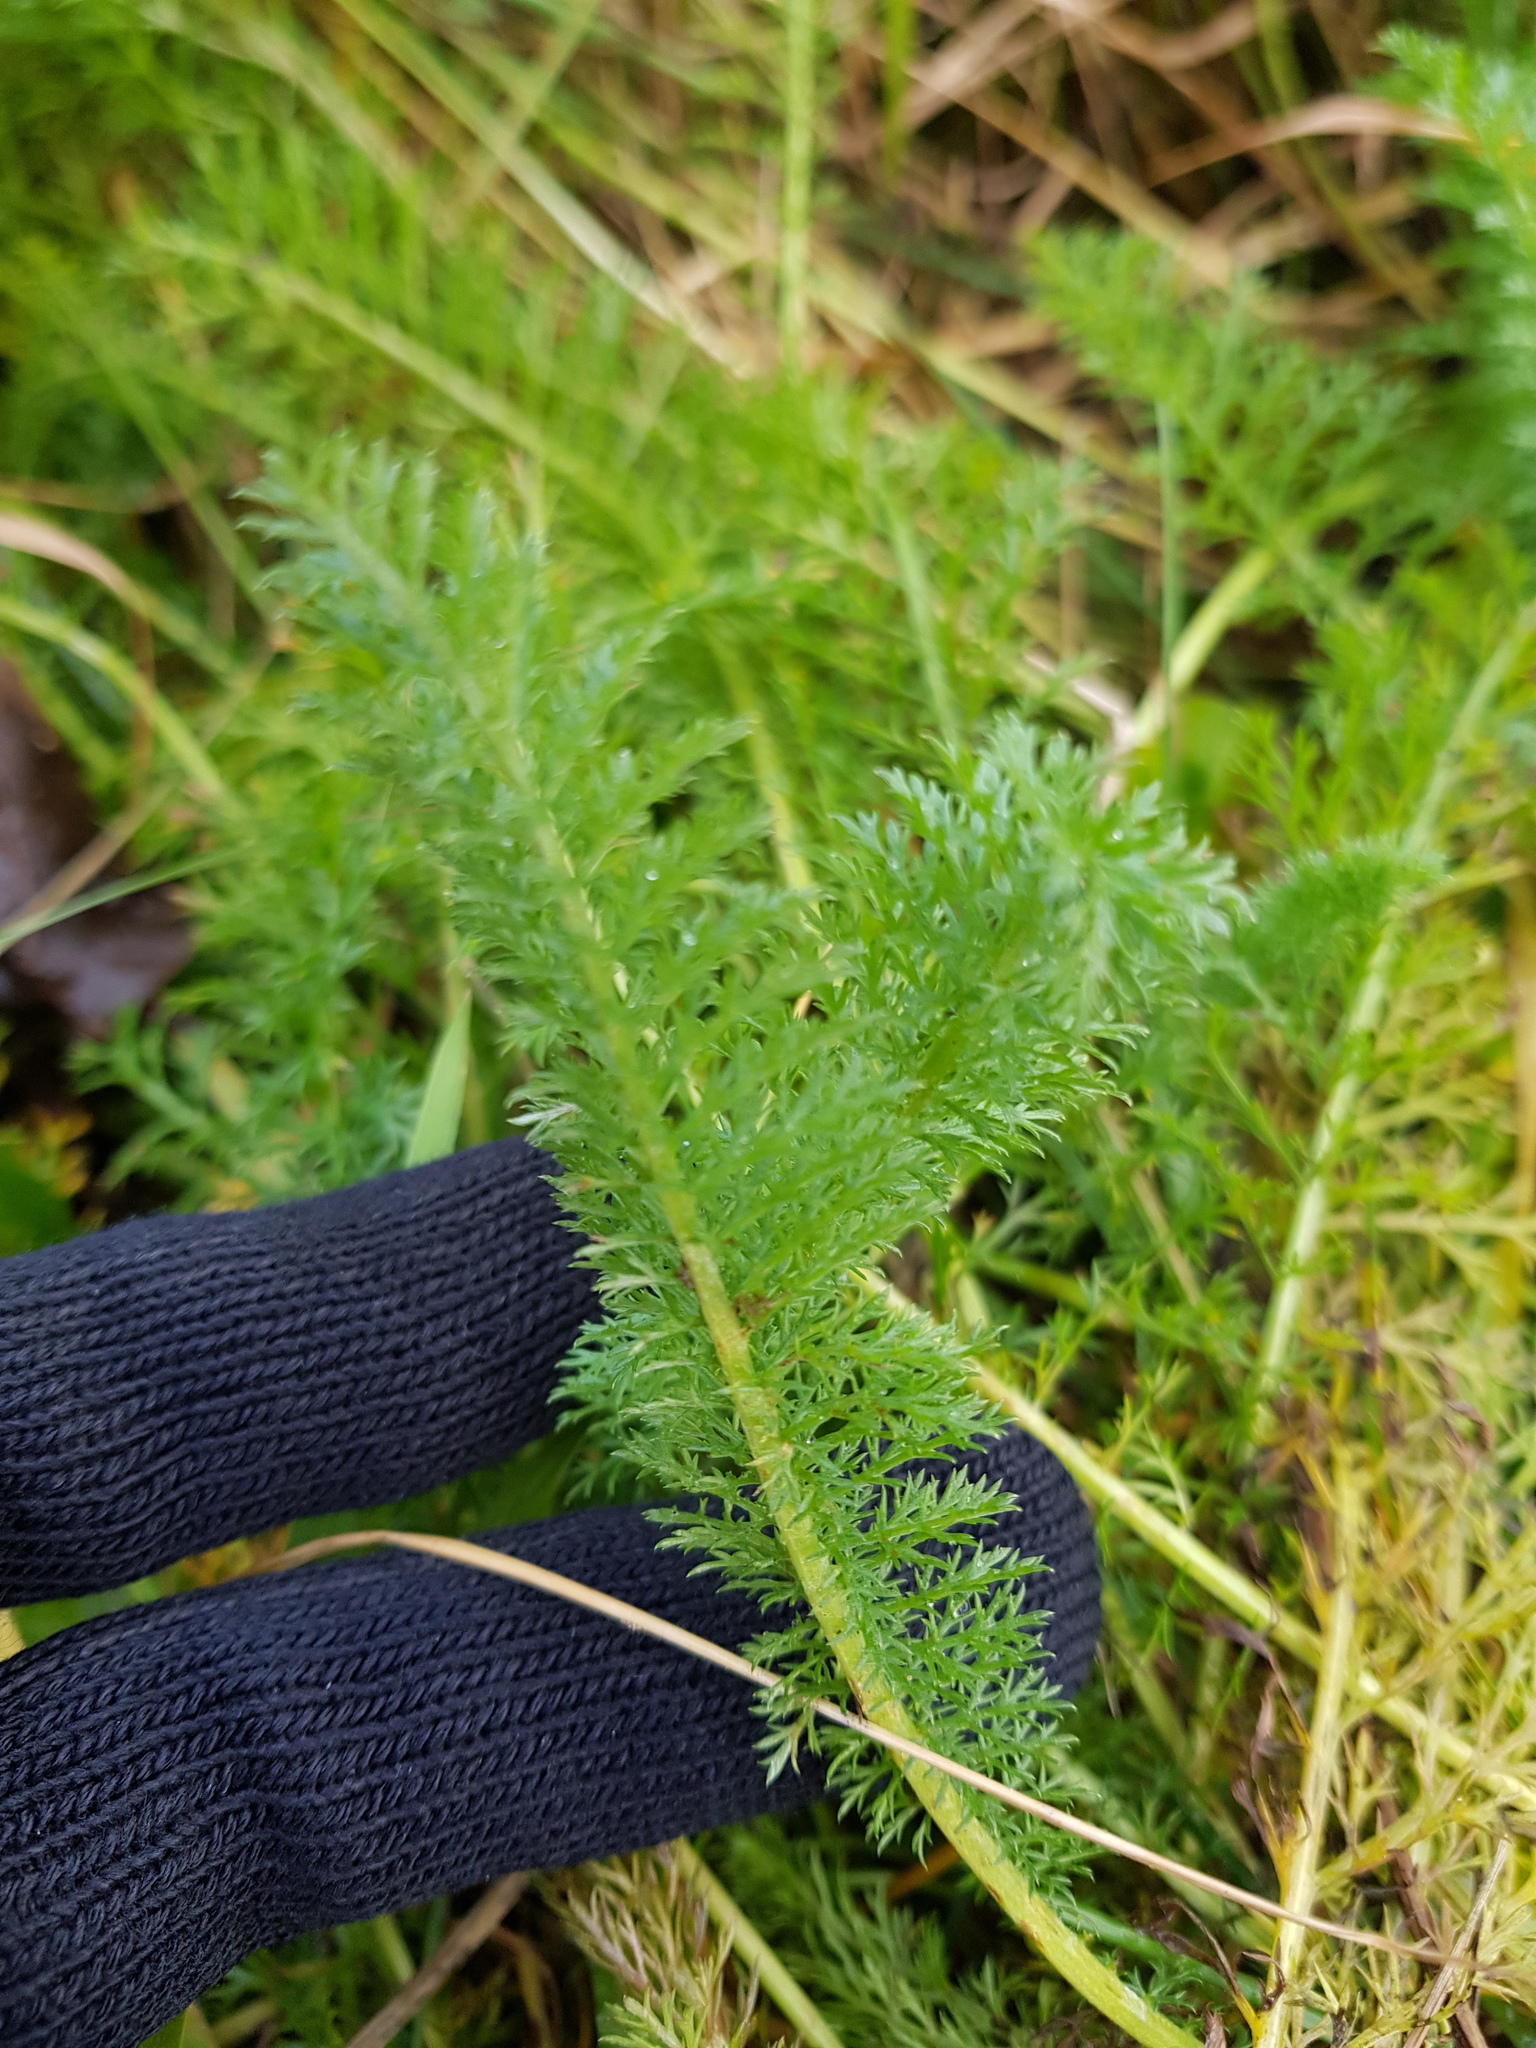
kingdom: Plantae
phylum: Tracheophyta
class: Magnoliopsida
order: Asterales
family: Asteraceae
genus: Achillea
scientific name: Achillea millefolium
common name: Yarrow
